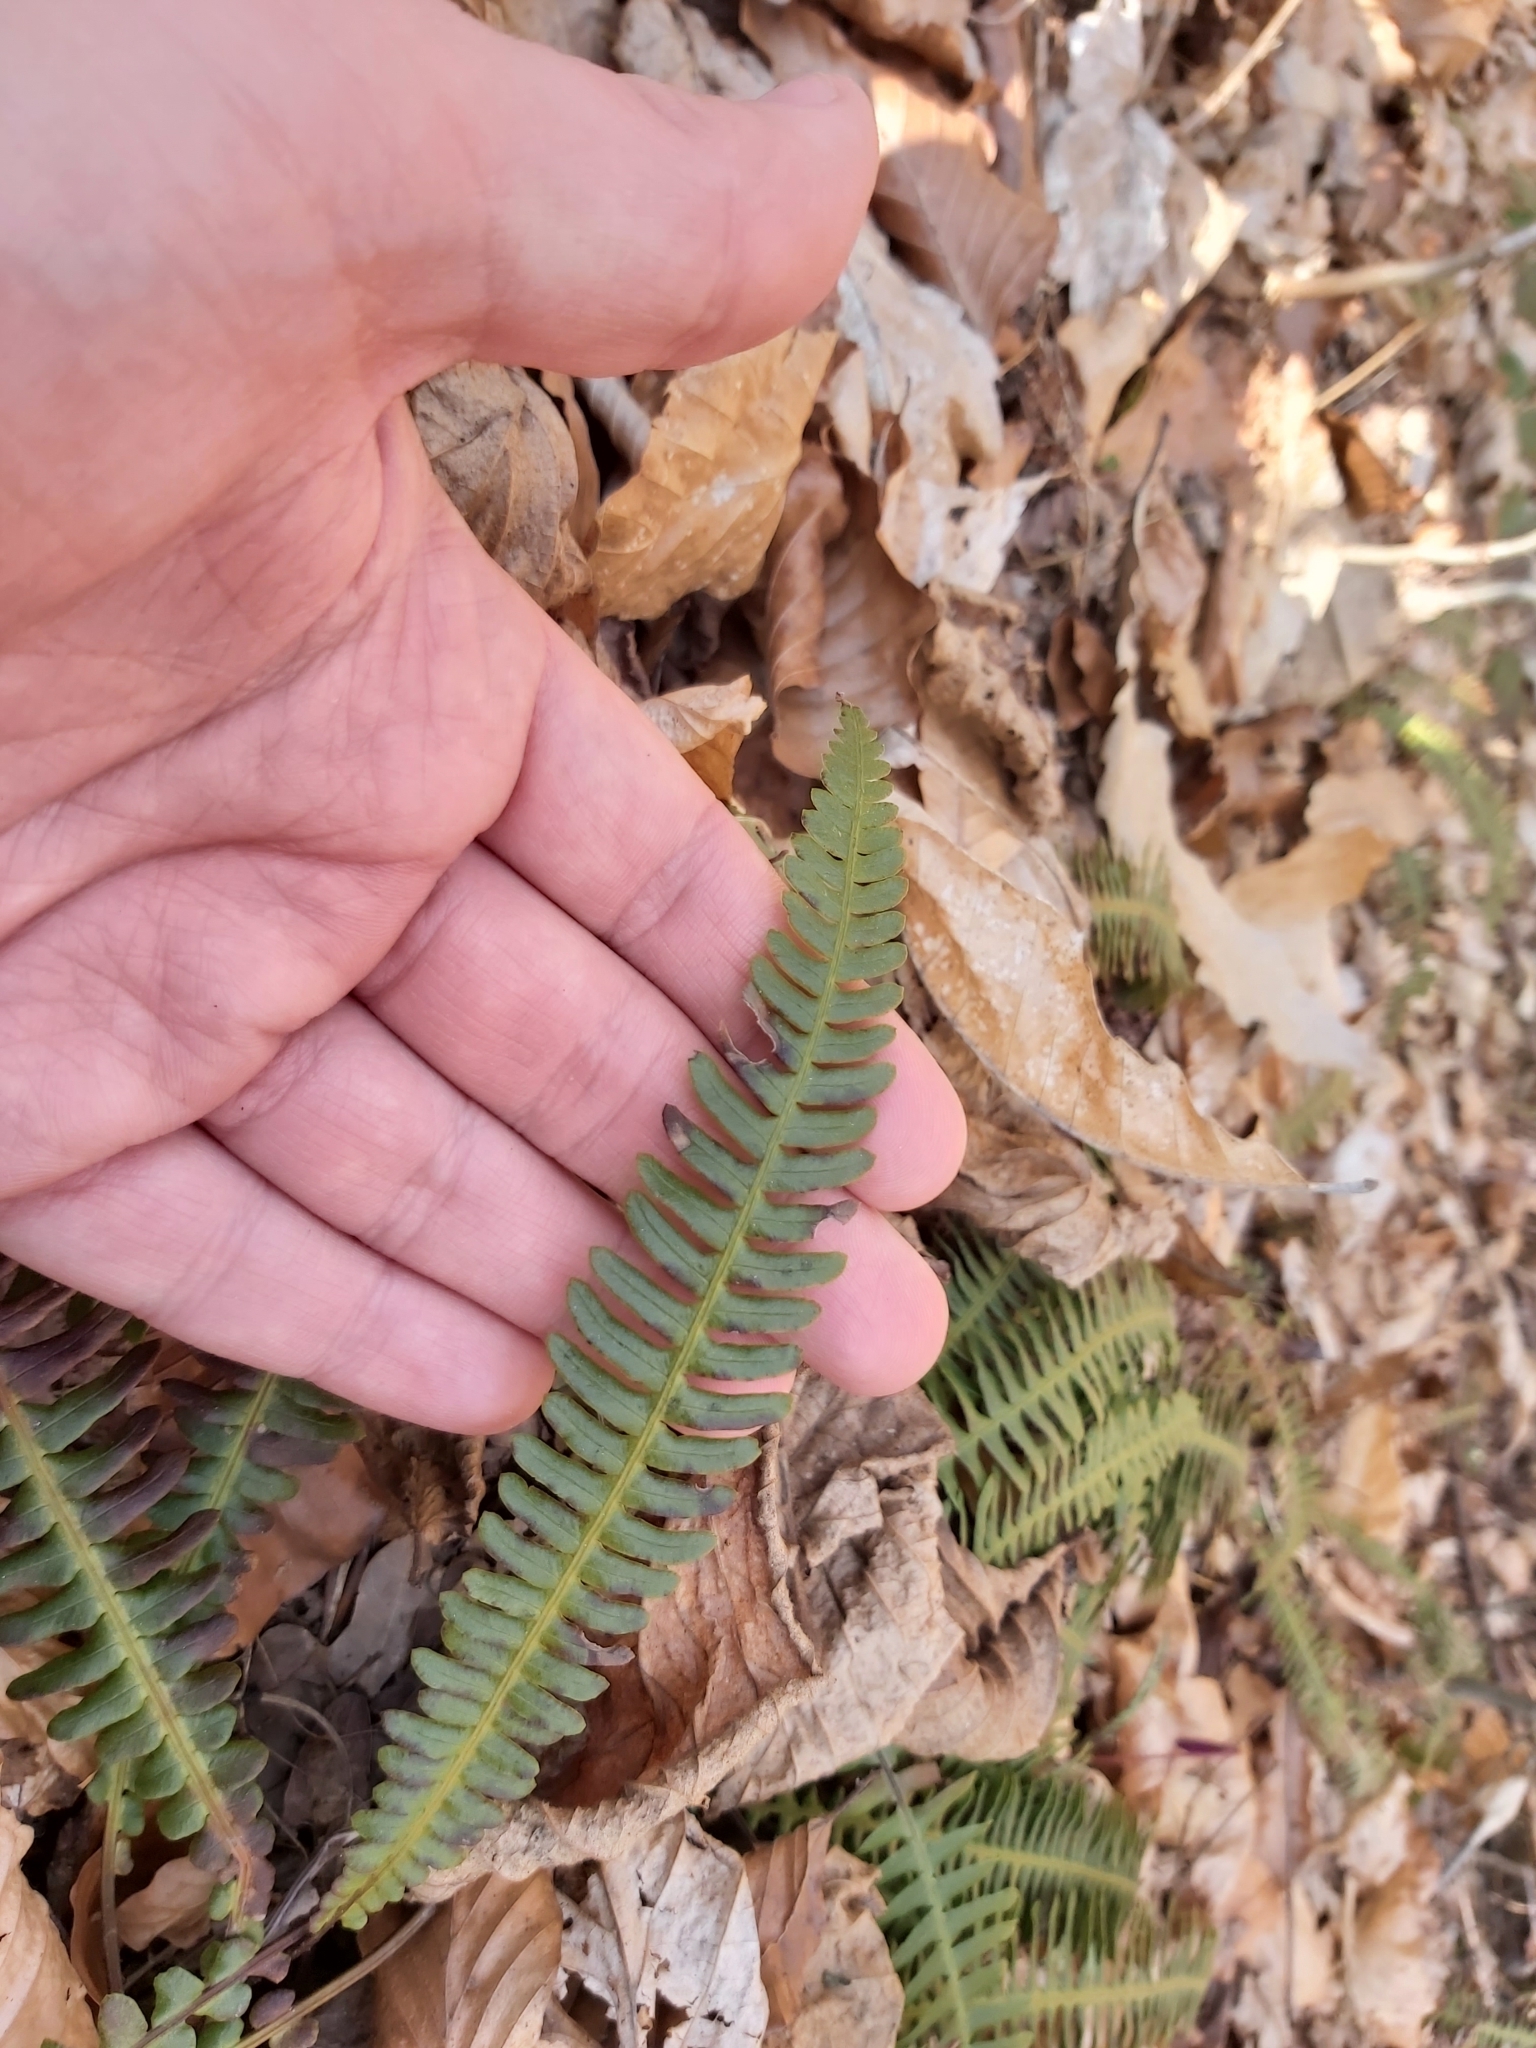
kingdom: Plantae
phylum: Tracheophyta
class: Polypodiopsida
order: Polypodiales
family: Blechnaceae
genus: Struthiopteris
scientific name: Struthiopteris spicant
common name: Deer fern
